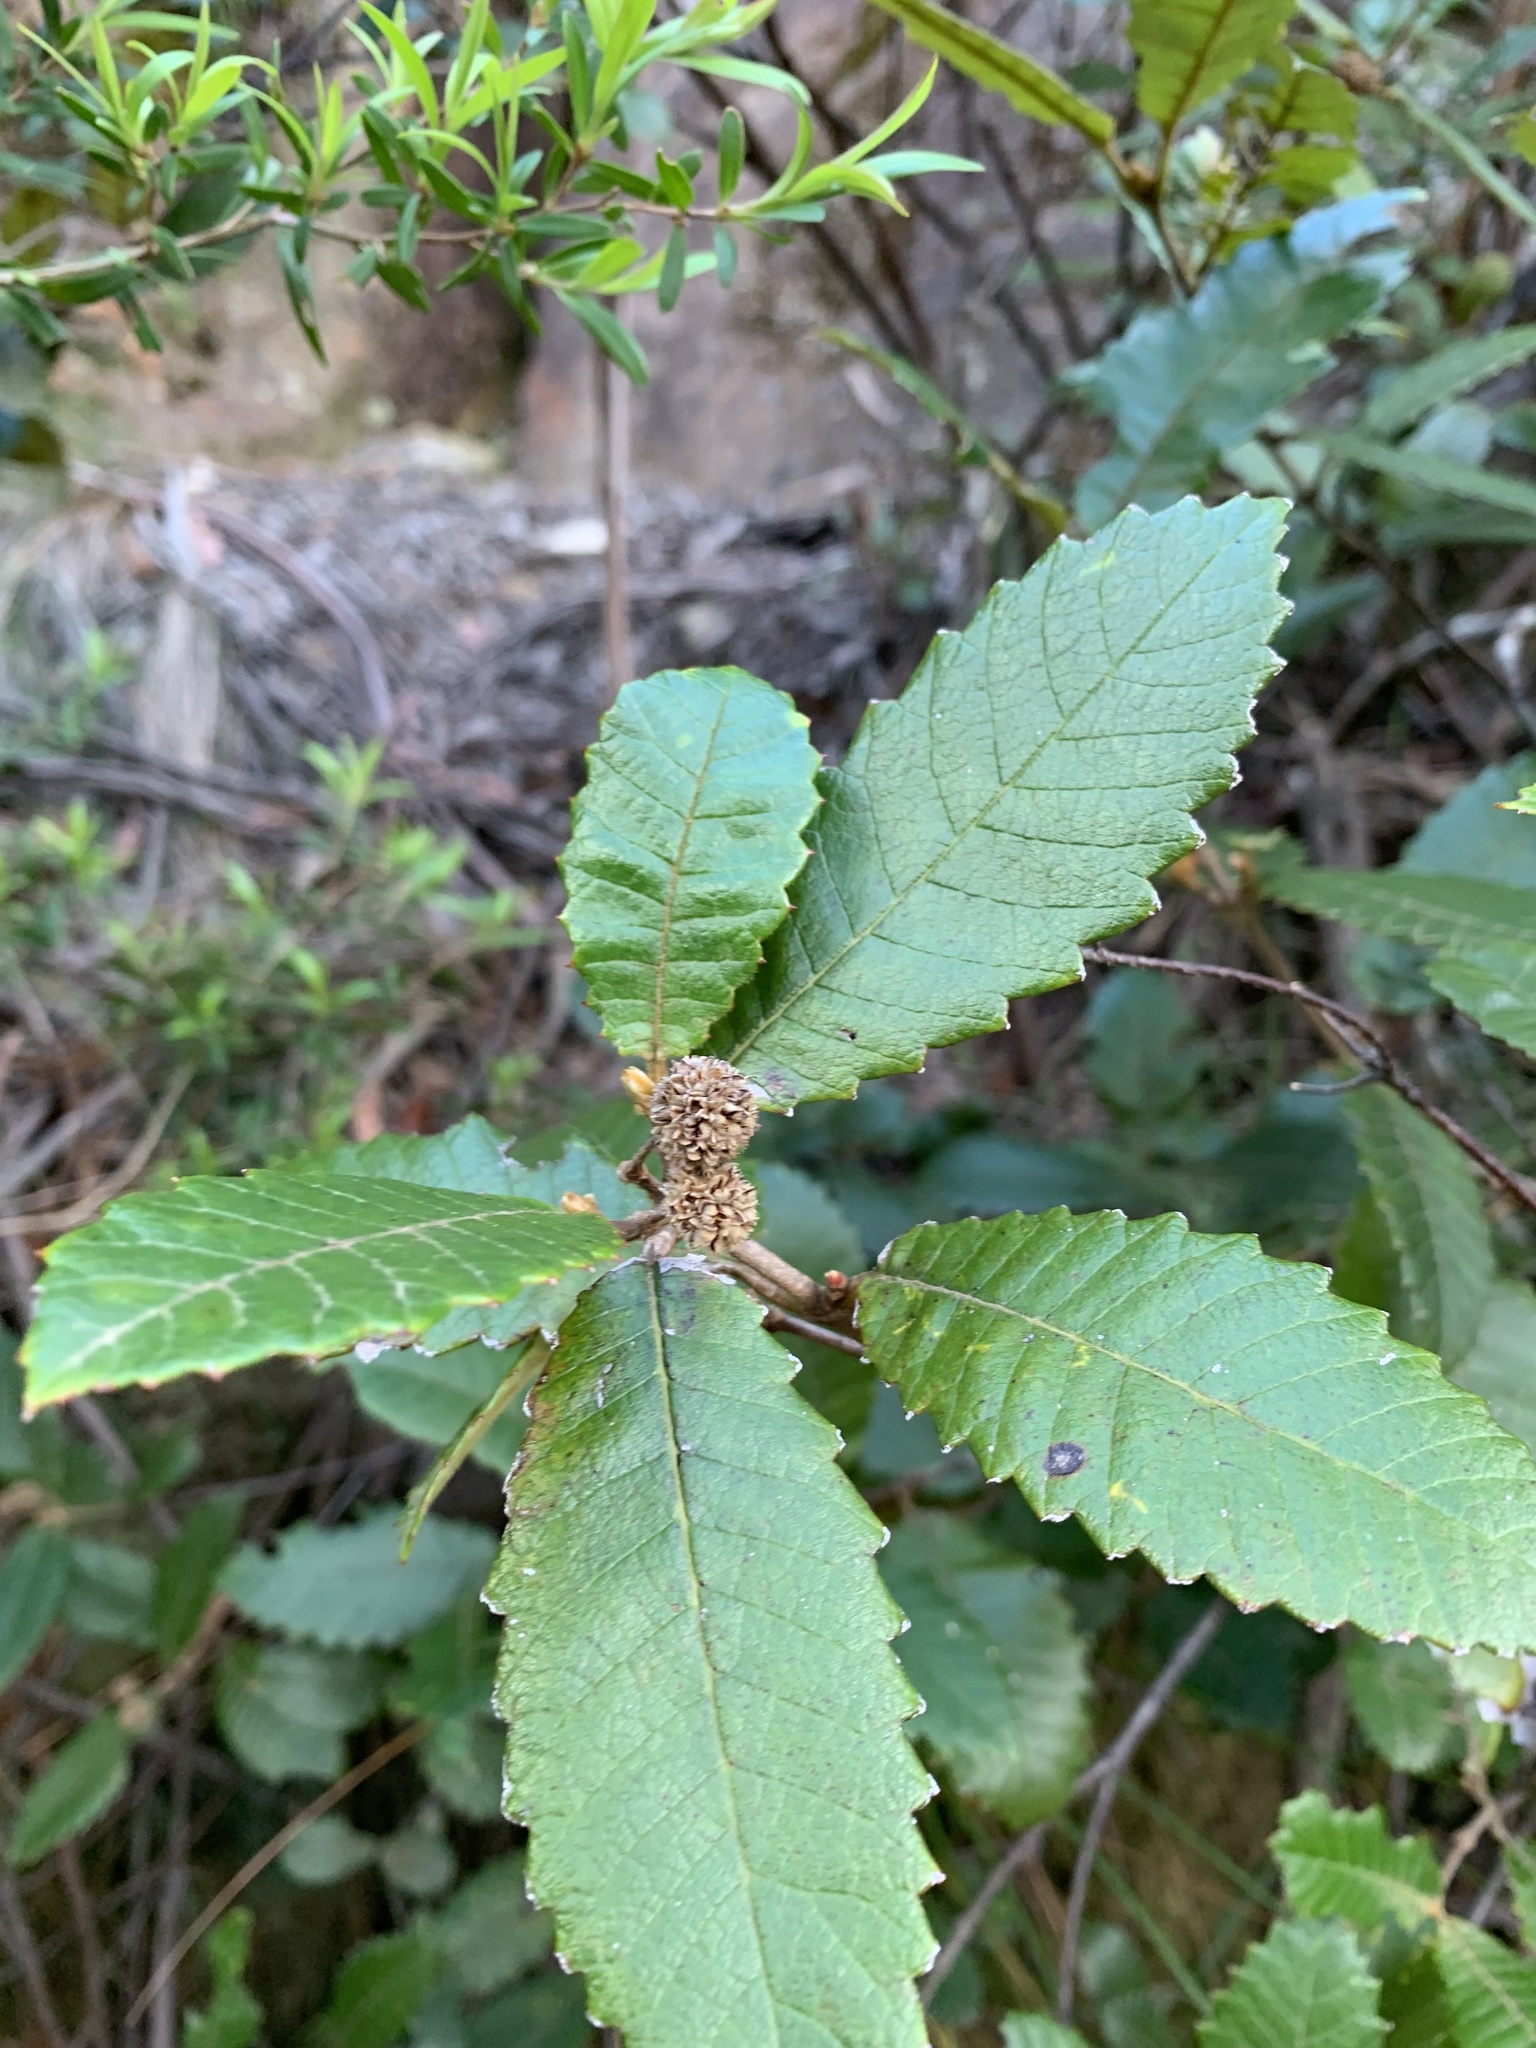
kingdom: Plantae
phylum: Tracheophyta
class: Magnoliopsida
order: Oxalidales
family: Cunoniaceae
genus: Callicoma
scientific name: Callicoma serratifolia
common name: Black wattle
